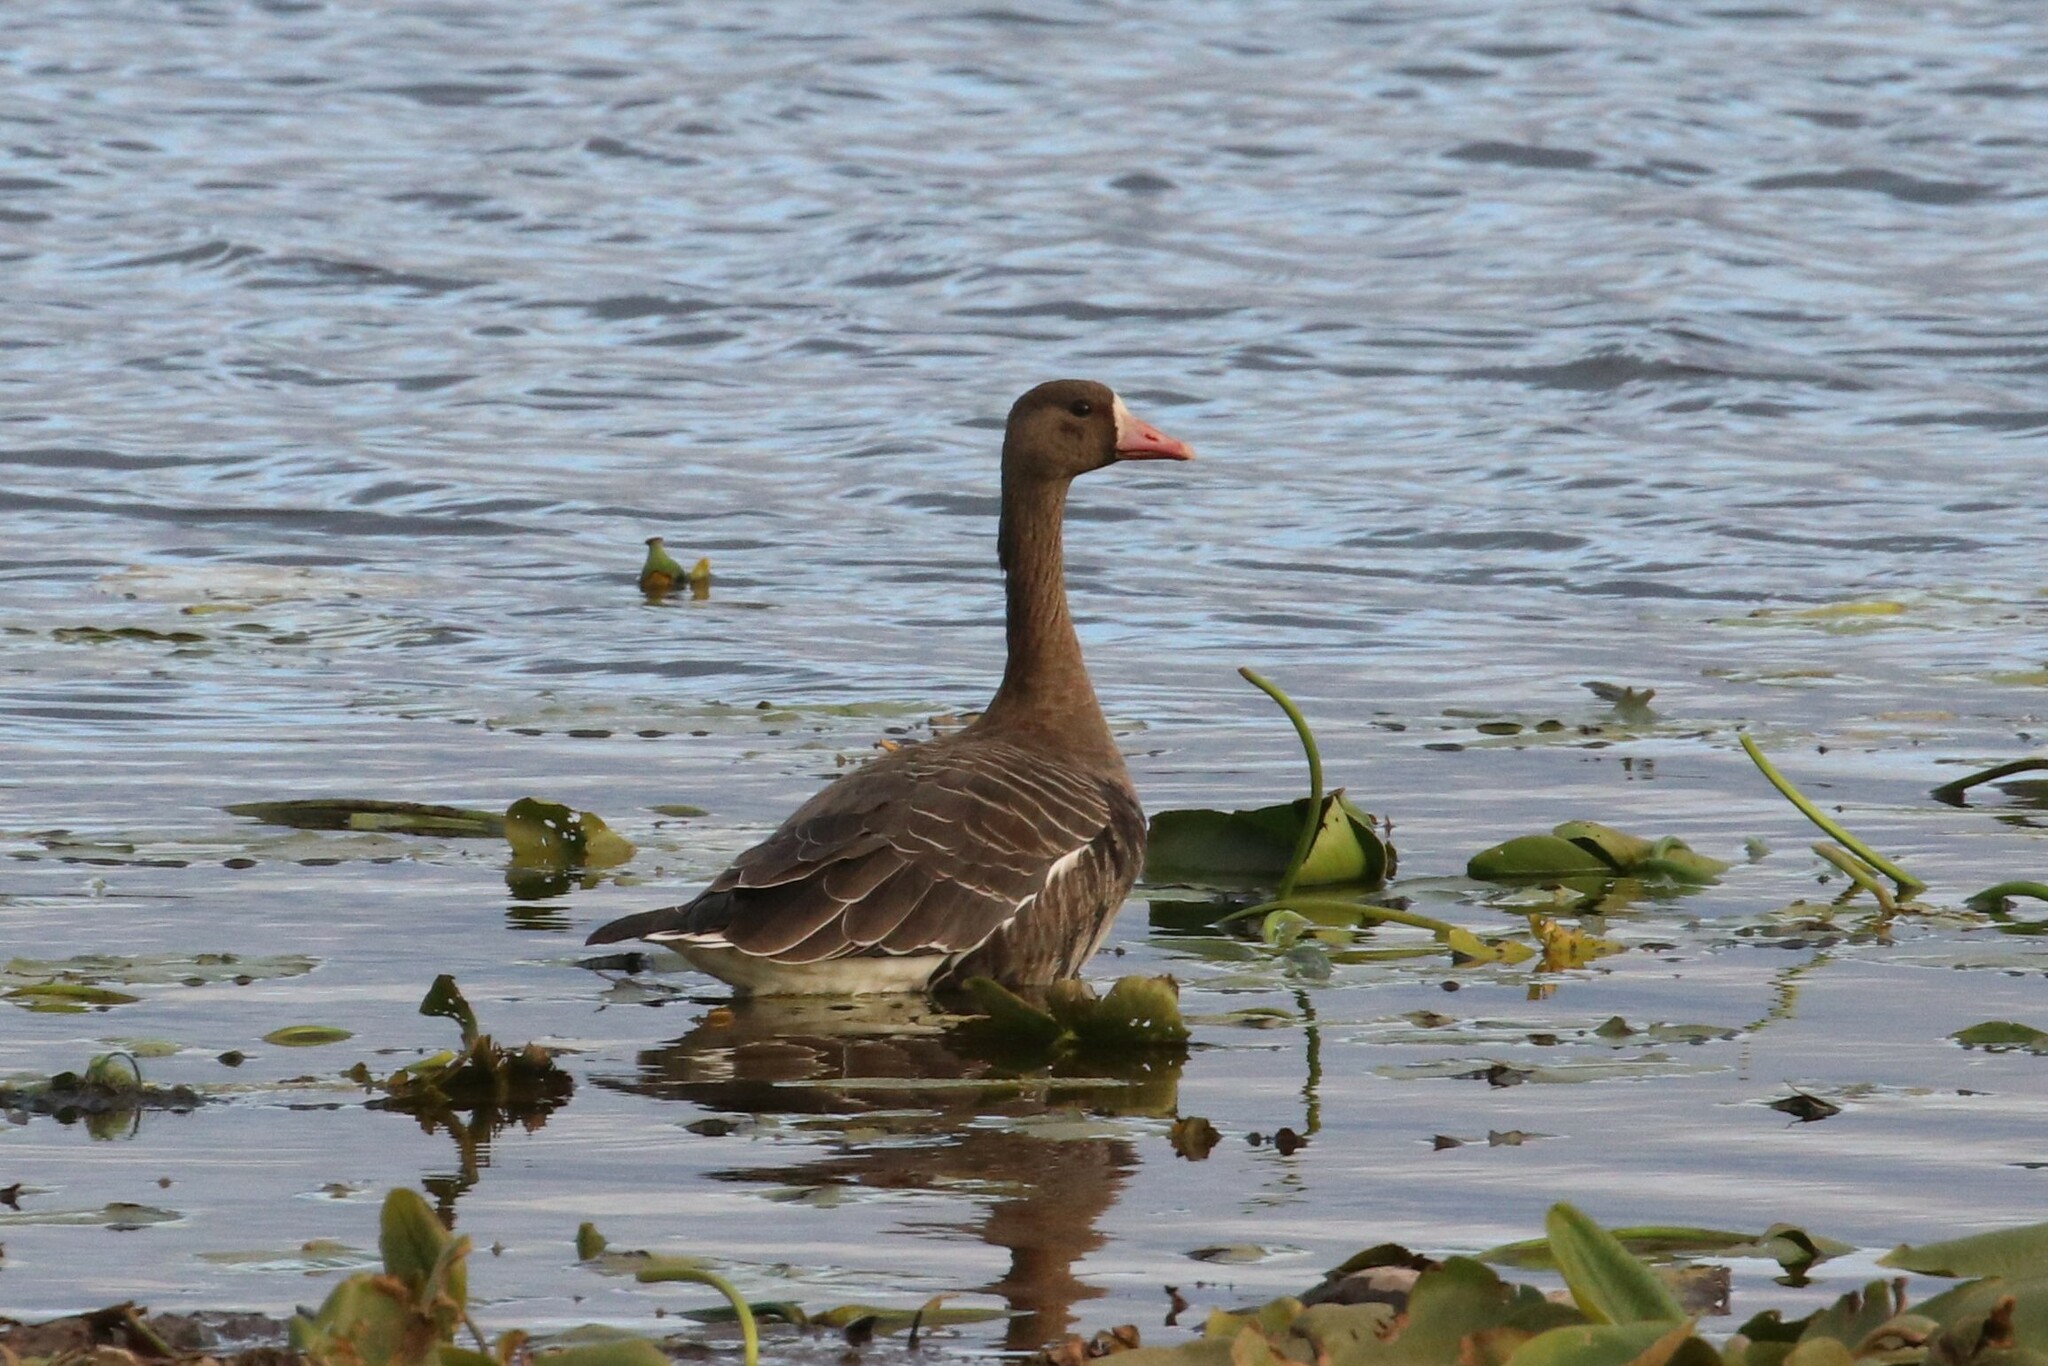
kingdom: Animalia
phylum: Chordata
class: Aves
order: Anseriformes
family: Anatidae
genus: Anser
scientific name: Anser albifrons
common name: Greater white-fronted goose
